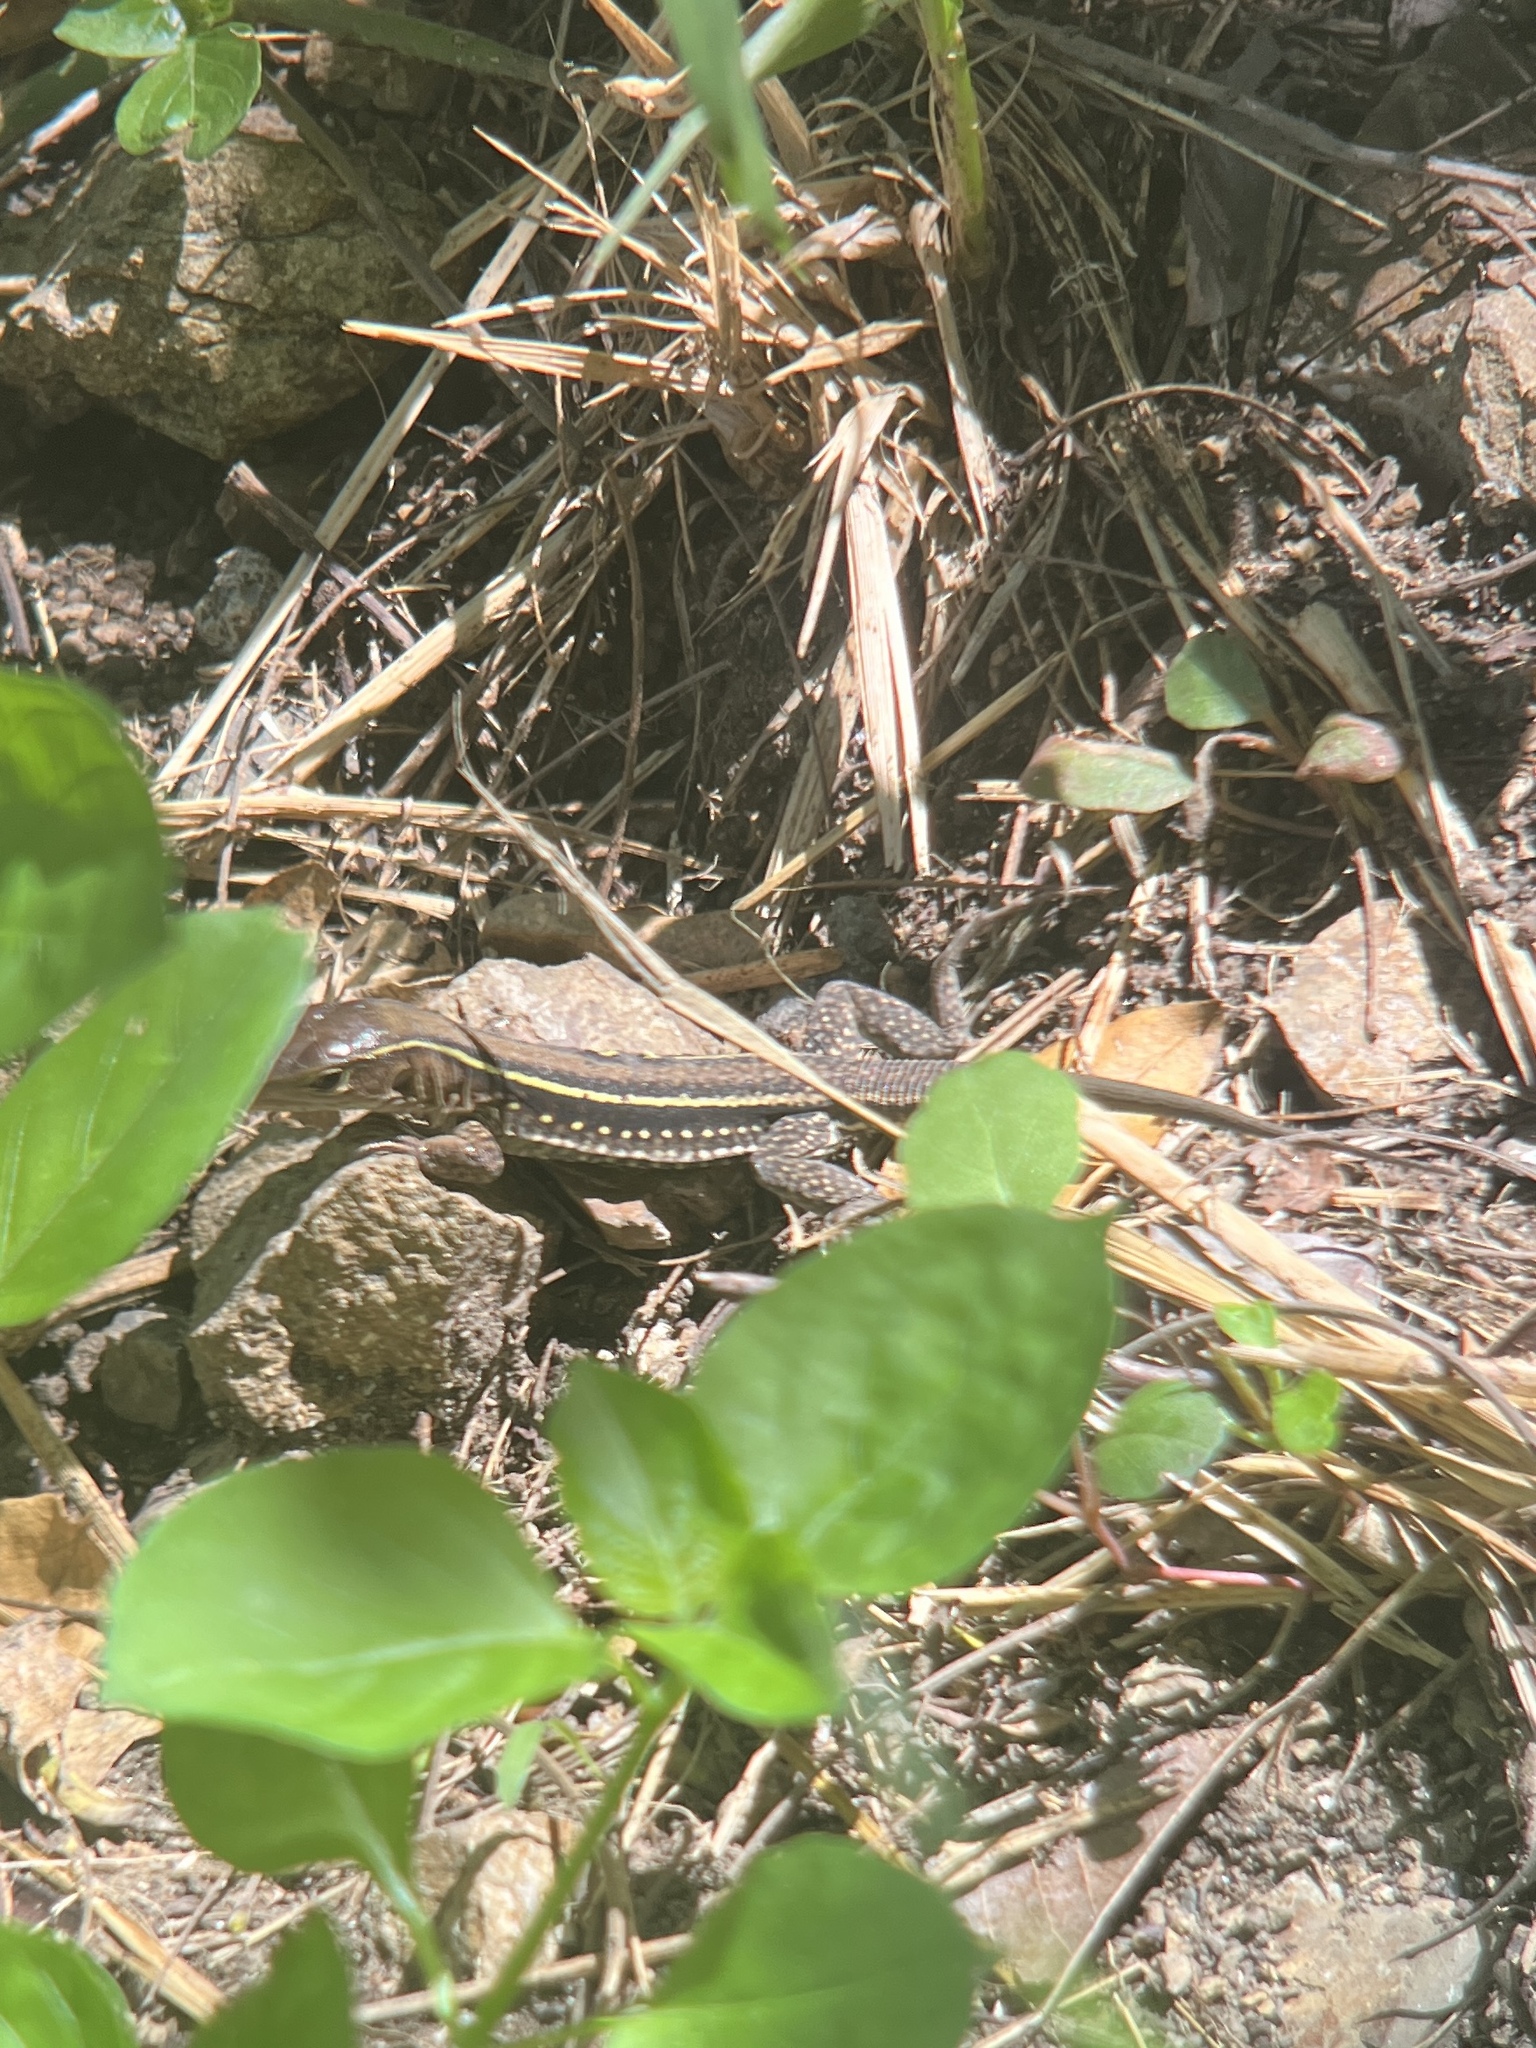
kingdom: Animalia
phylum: Chordata
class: Squamata
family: Teiidae
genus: Pholidoscelis
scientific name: Pholidoscelis exsul
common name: Common puerto rican ameiva
